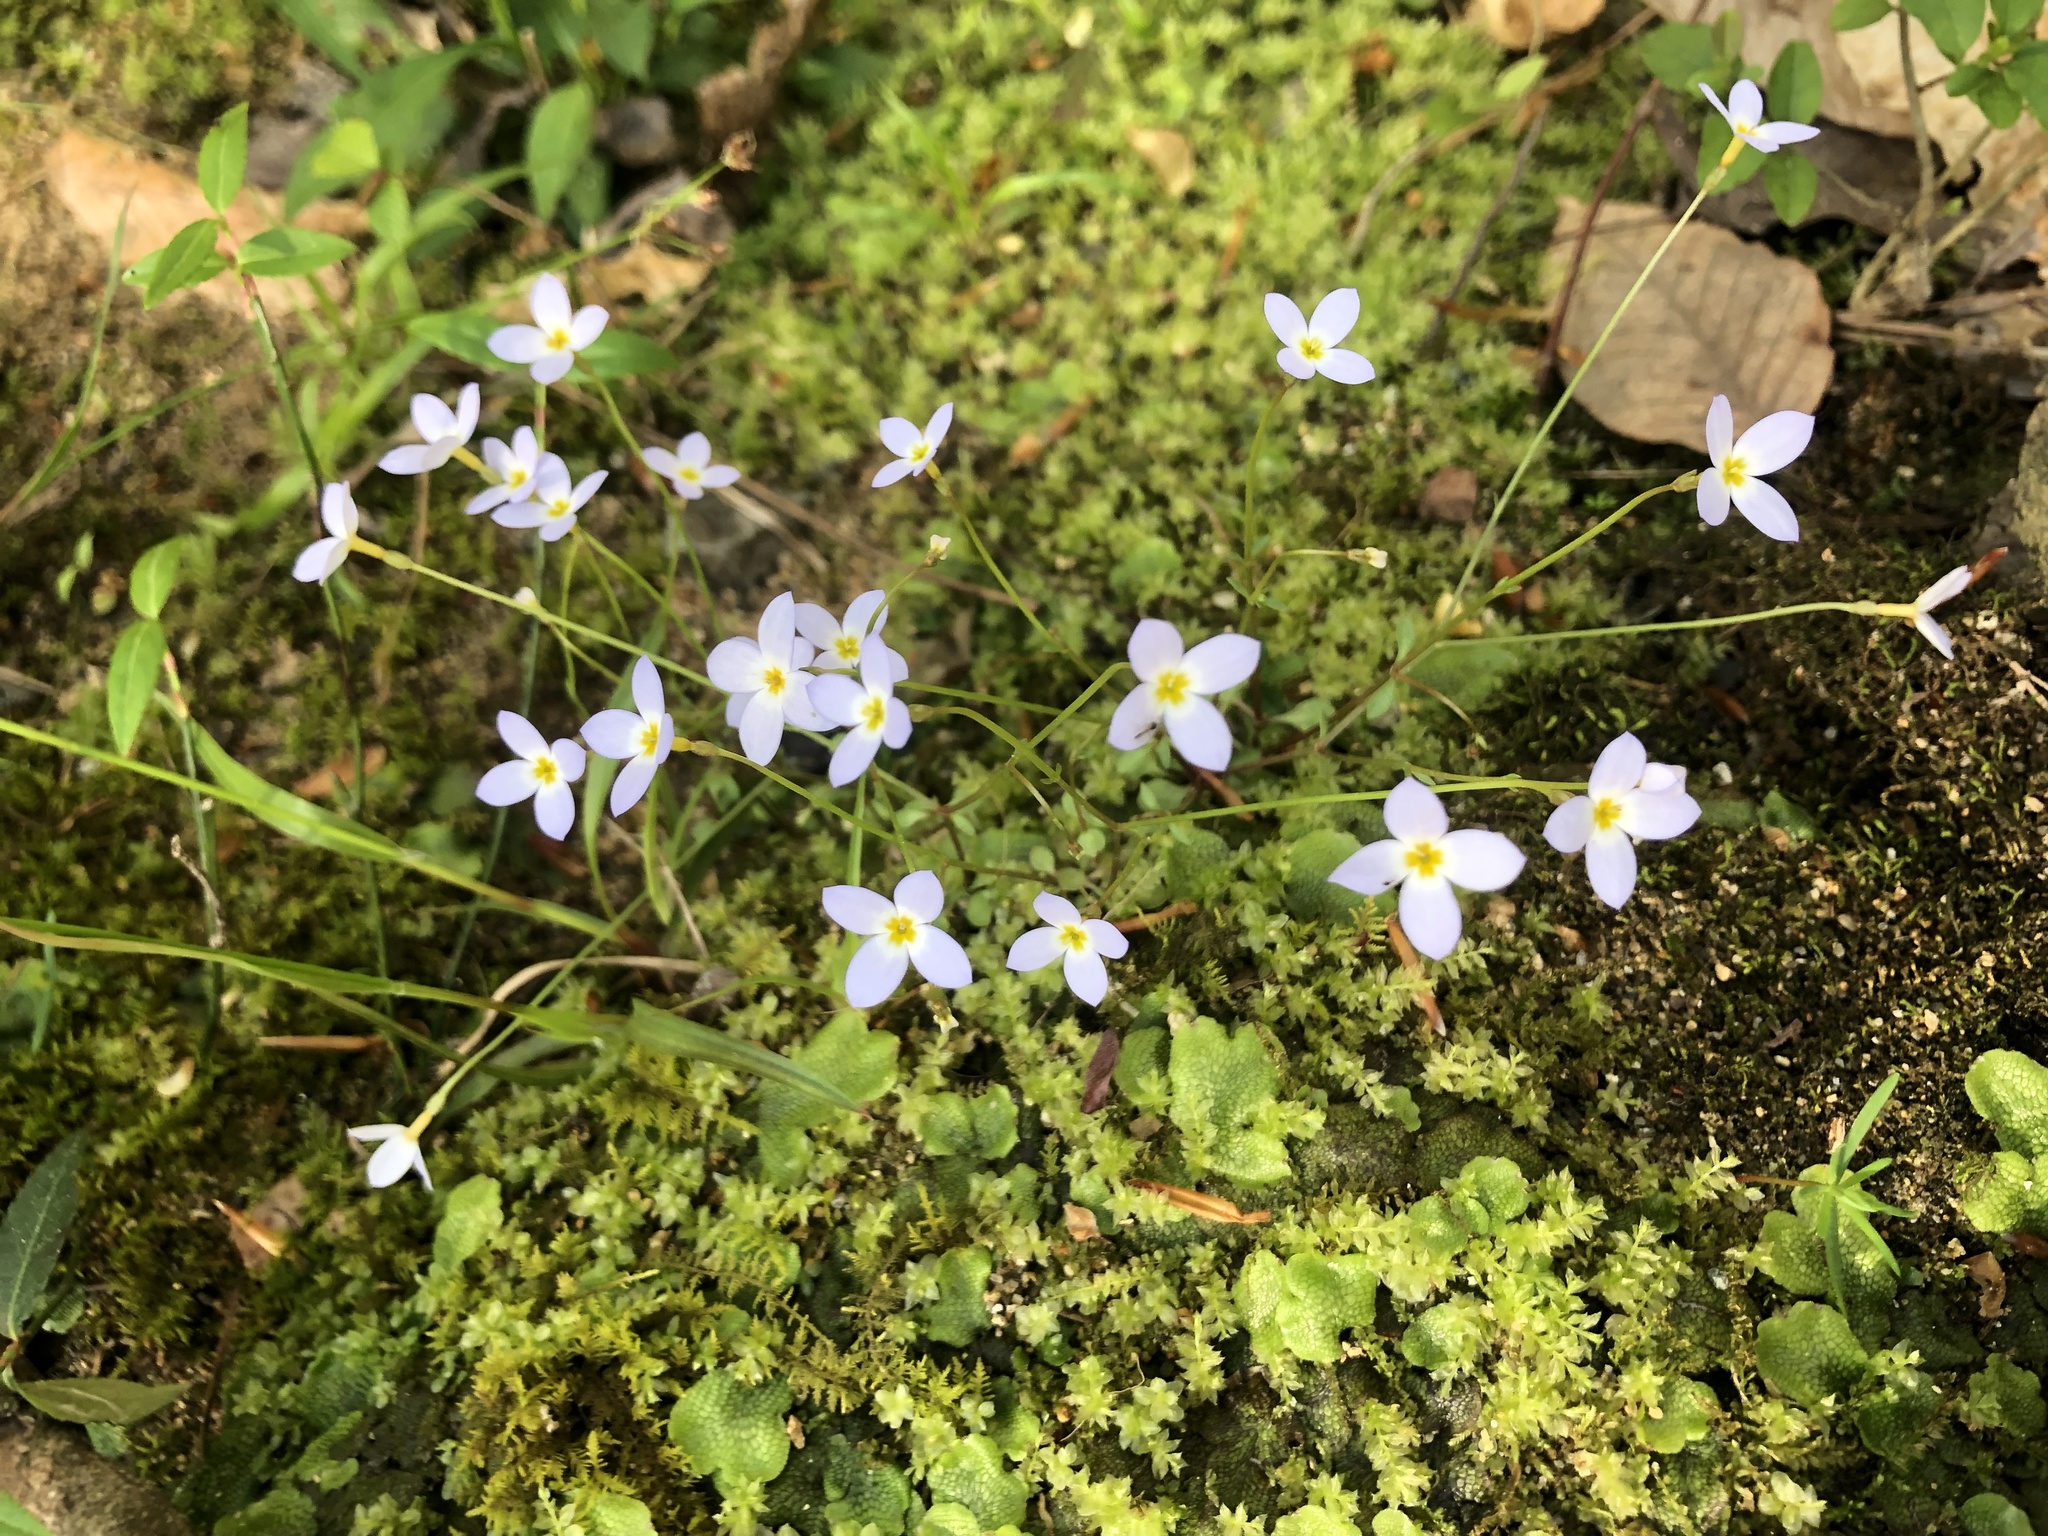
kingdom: Plantae
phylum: Tracheophyta
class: Magnoliopsida
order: Gentianales
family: Rubiaceae
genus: Houstonia
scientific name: Houstonia caerulea
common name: Bluets
